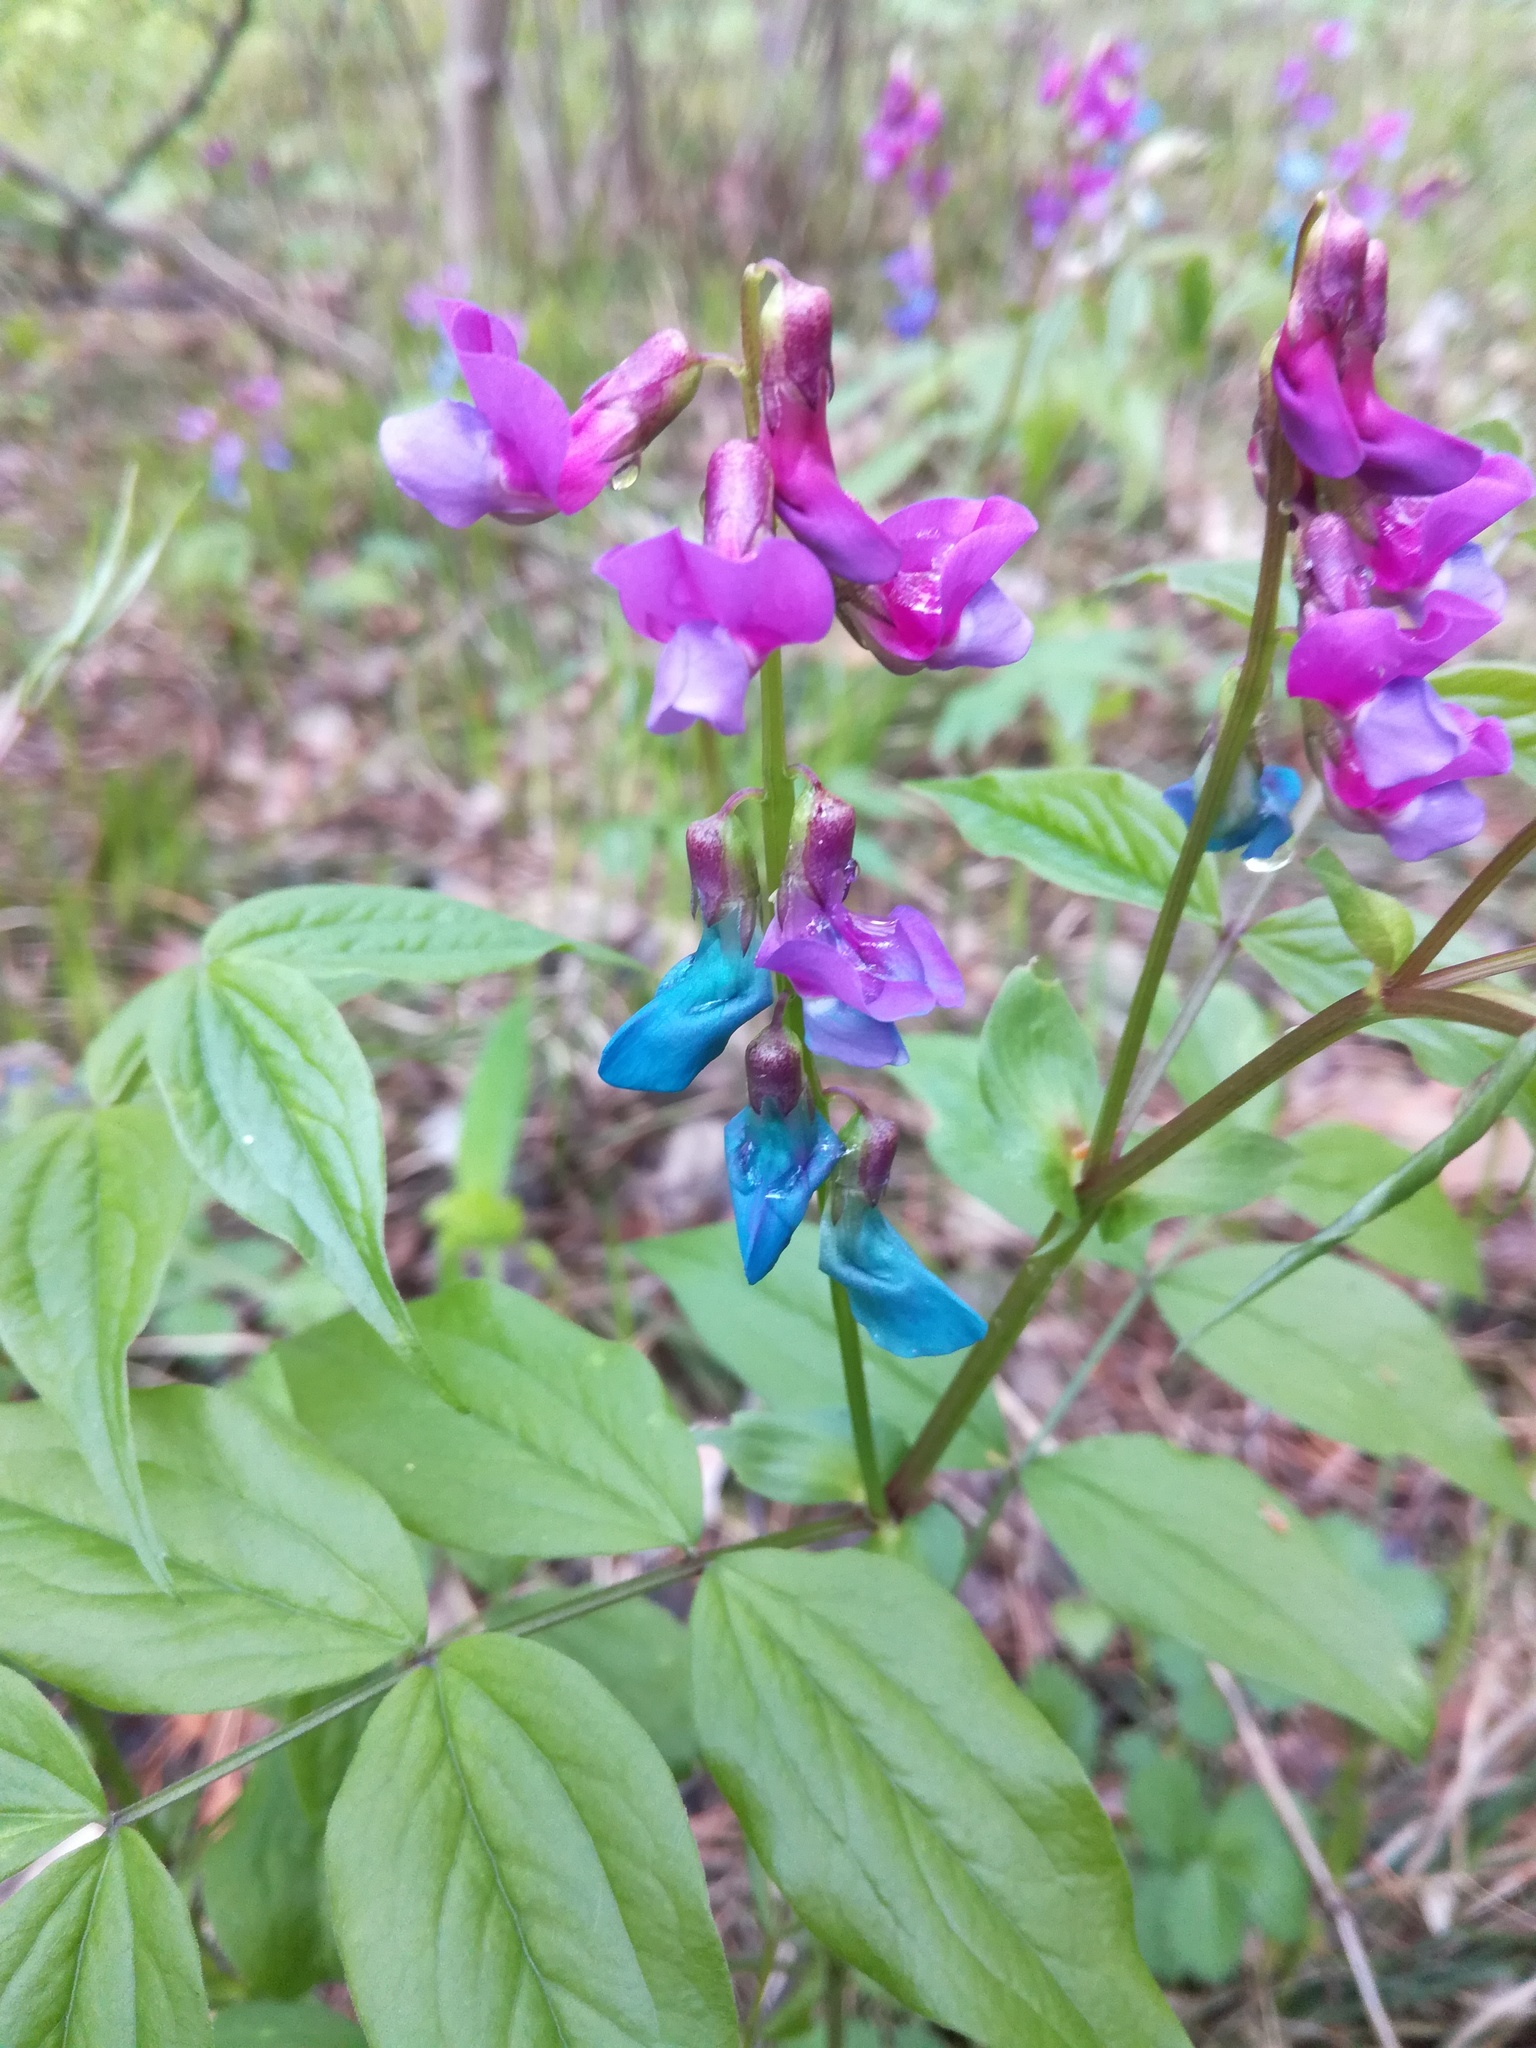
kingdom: Plantae
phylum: Tracheophyta
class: Magnoliopsida
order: Fabales
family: Fabaceae
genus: Lathyrus
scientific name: Lathyrus vernus
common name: Spring pea
